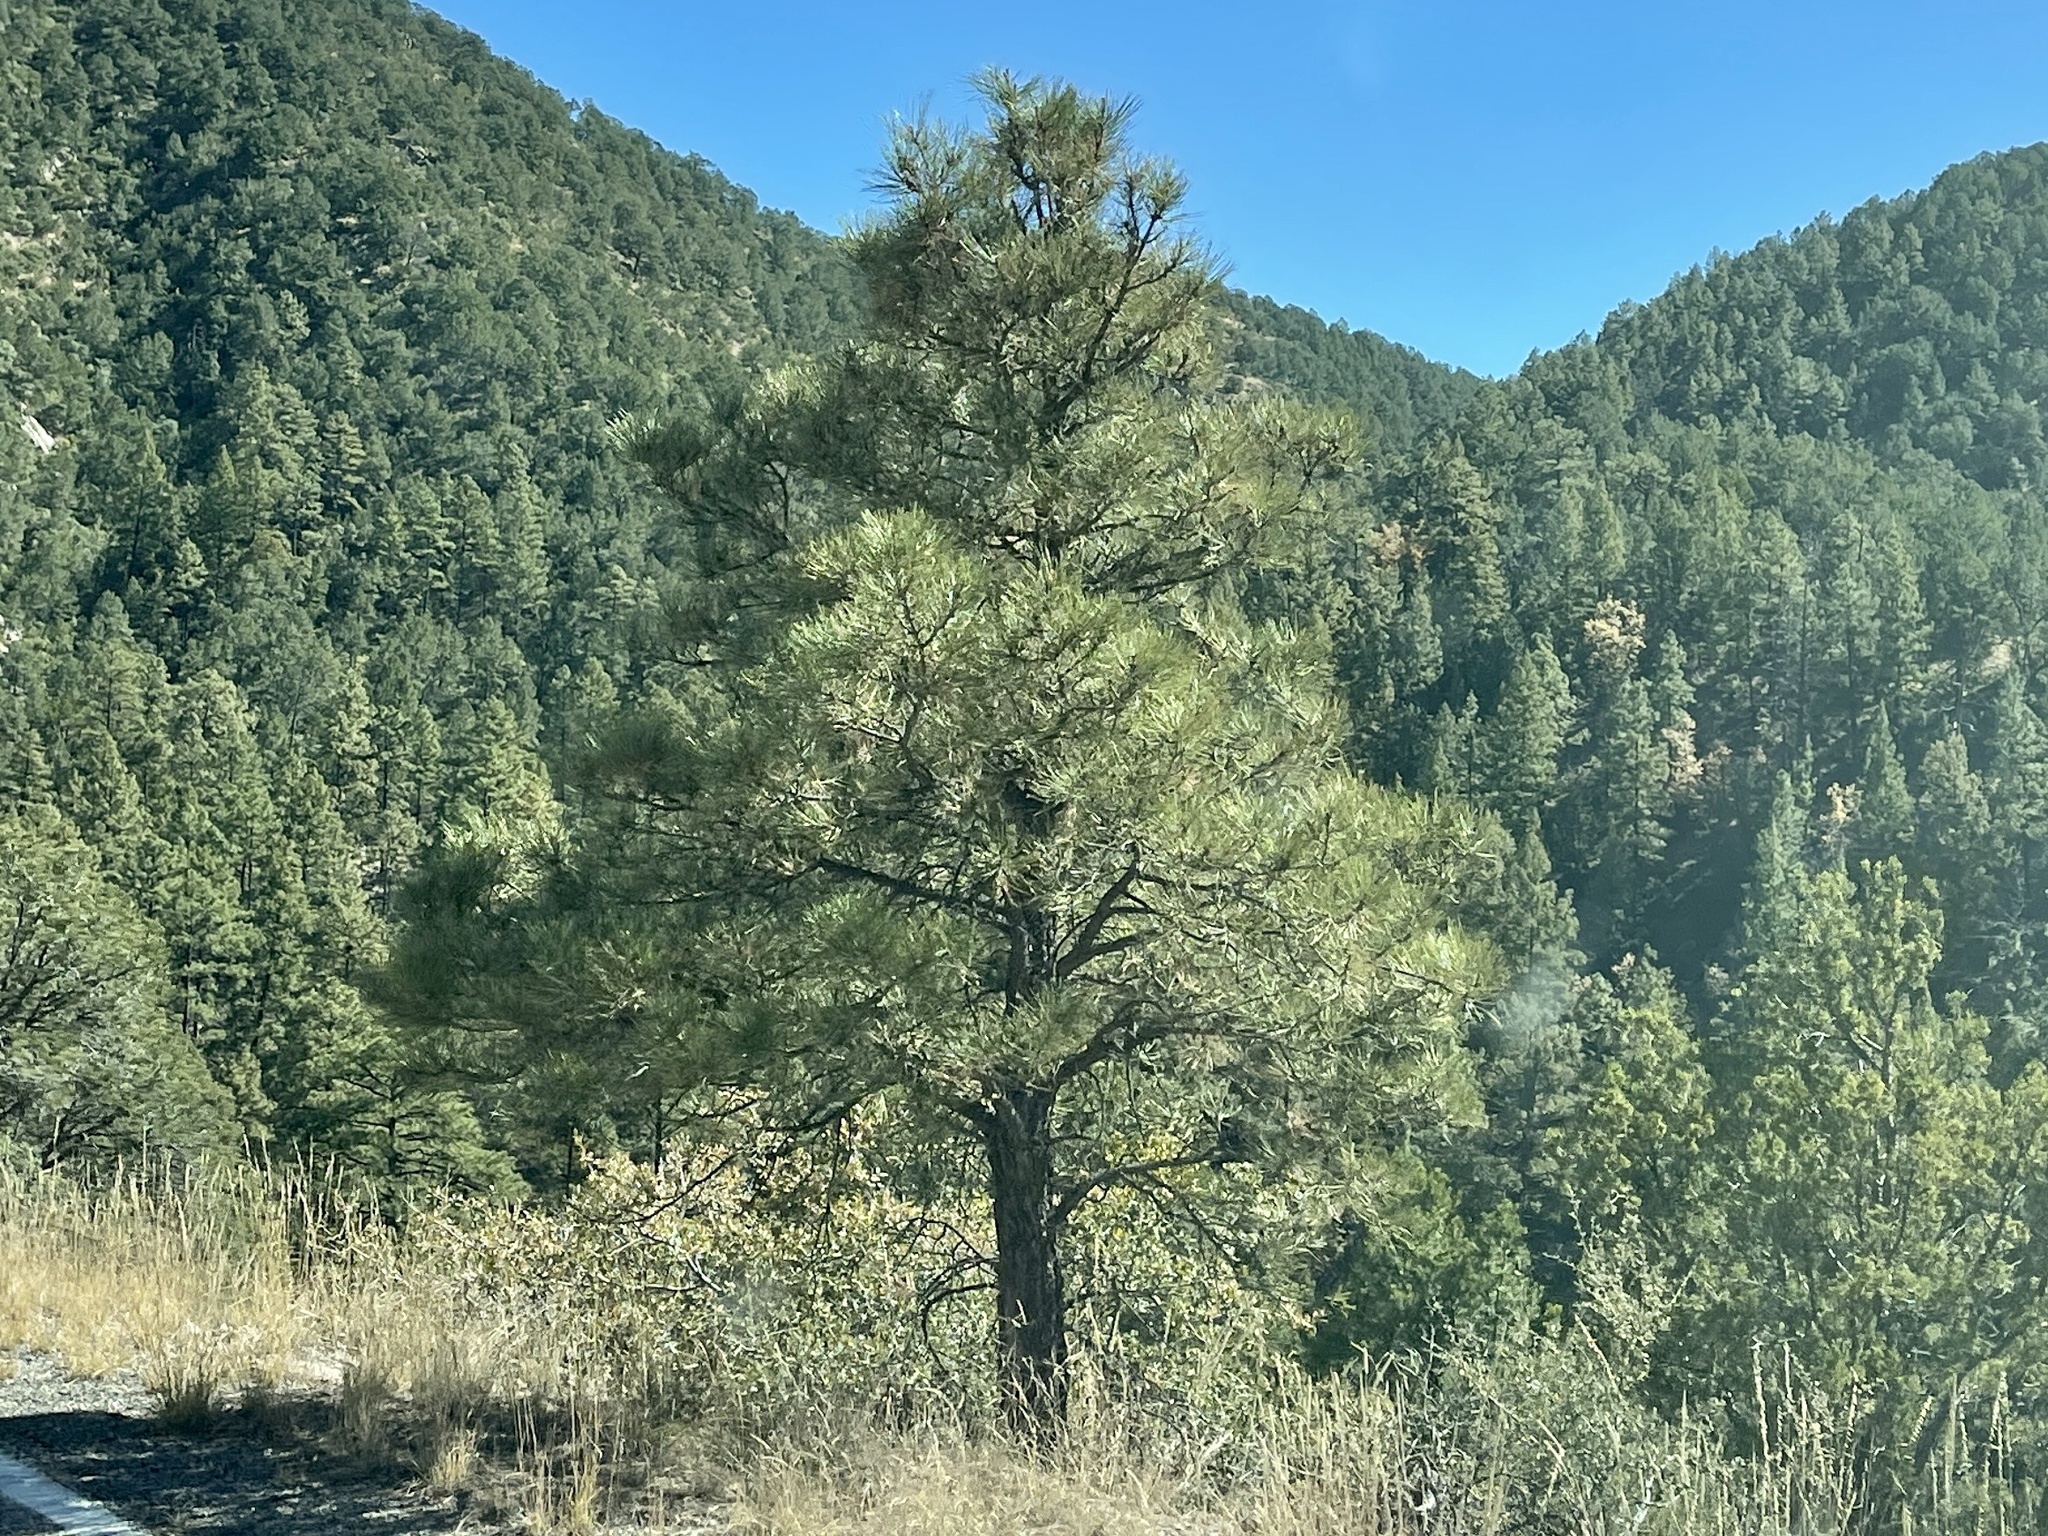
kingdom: Plantae
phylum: Tracheophyta
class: Pinopsida
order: Pinales
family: Pinaceae
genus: Pinus
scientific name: Pinus ponderosa
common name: Western yellow-pine
